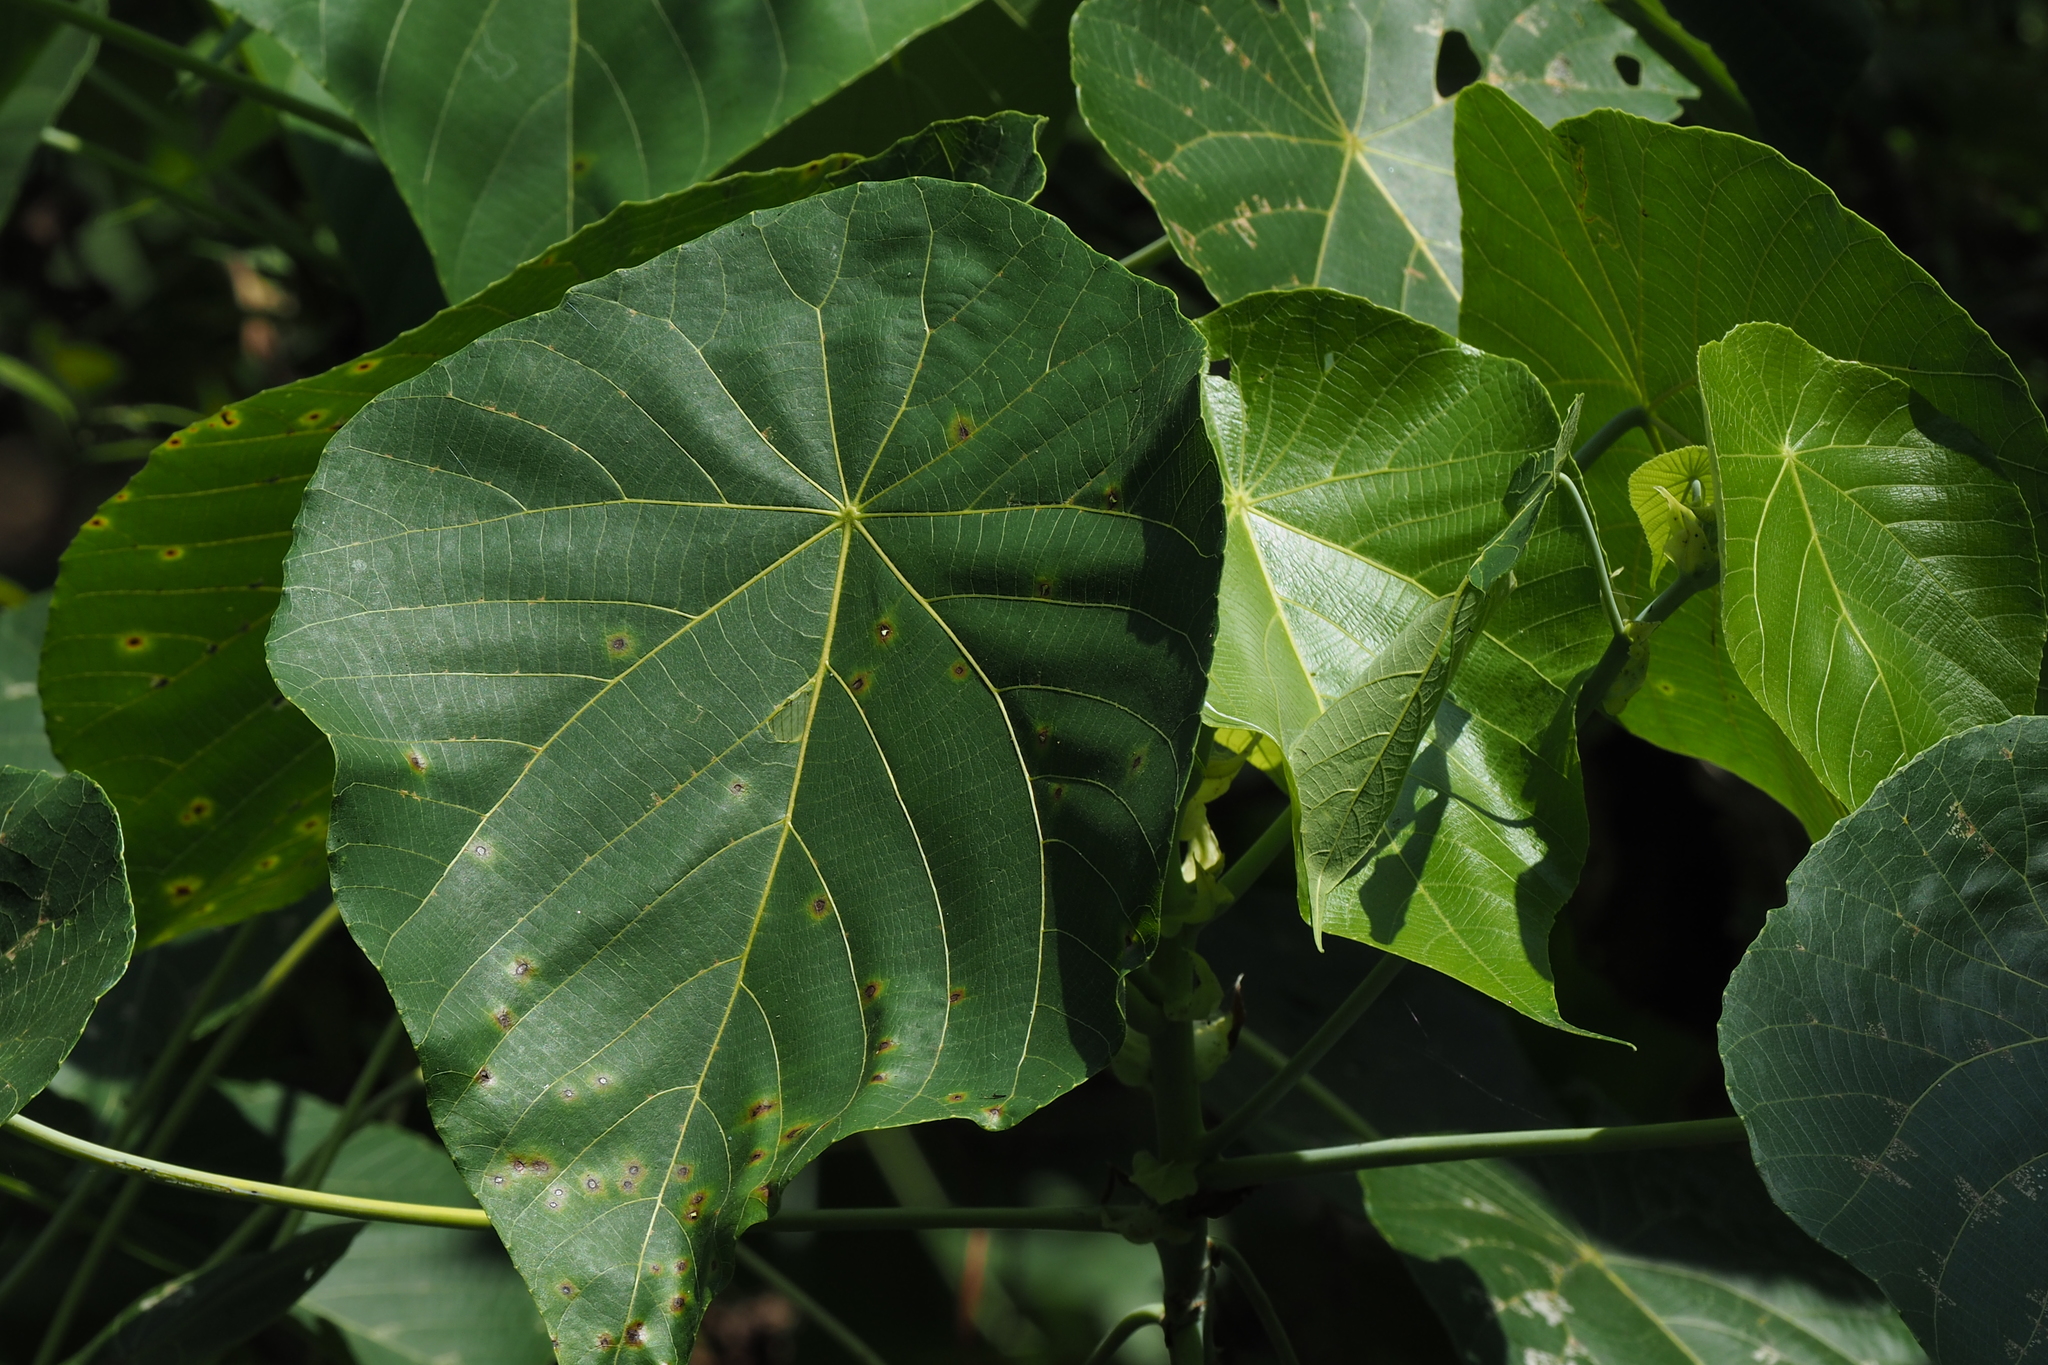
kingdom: Plantae
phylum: Tracheophyta
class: Magnoliopsida
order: Malpighiales
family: Euphorbiaceae
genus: Macaranga
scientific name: Macaranga tanarius
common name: Parasol leaf tree
